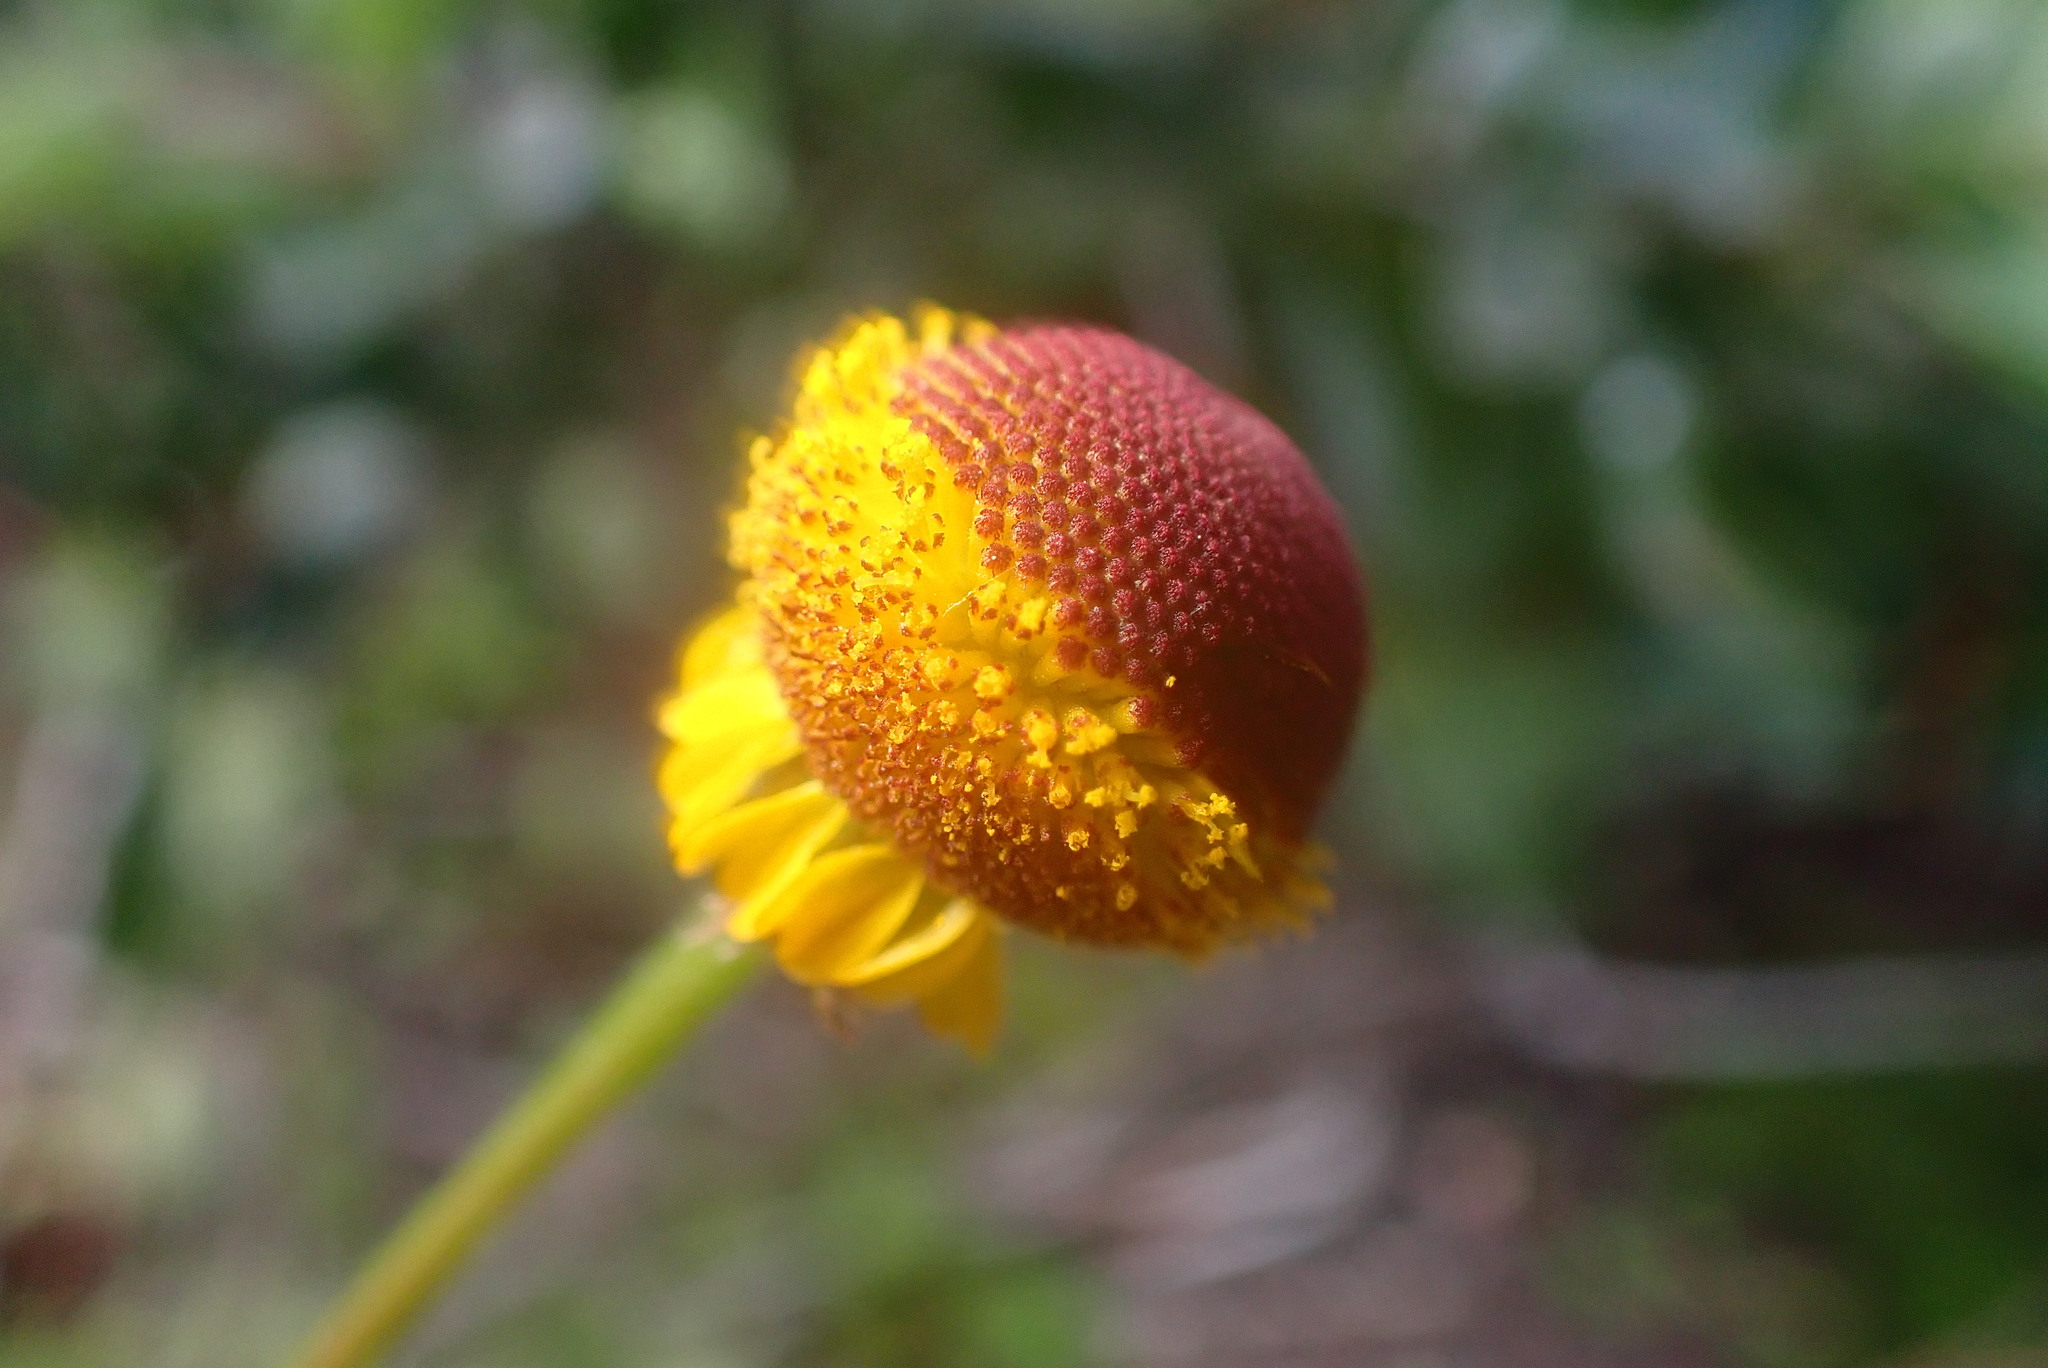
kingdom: Plantae
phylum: Tracheophyta
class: Magnoliopsida
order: Asterales
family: Asteraceae
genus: Helenium
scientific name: Helenium puberulum
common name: Sneezewort
